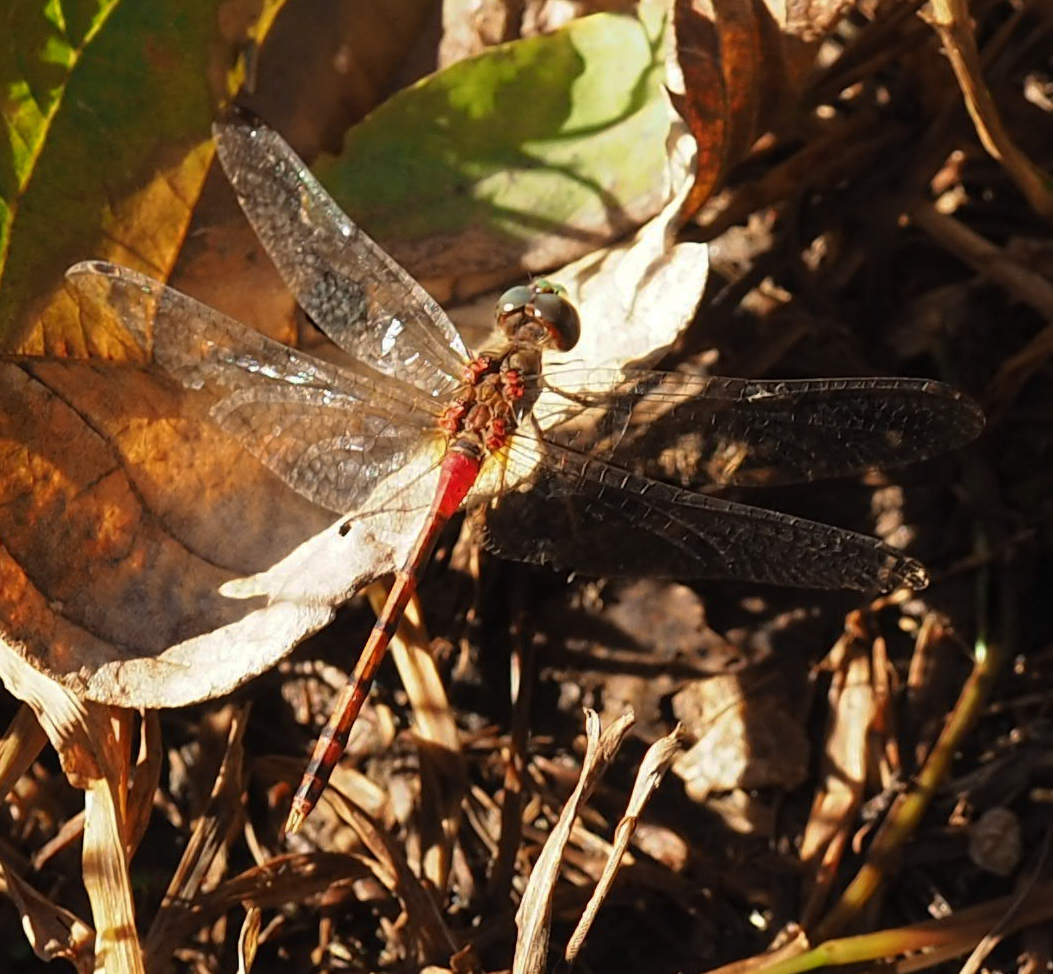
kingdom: Animalia
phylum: Arthropoda
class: Insecta
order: Odonata
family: Libellulidae
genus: Sympetrum
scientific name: Sympetrum ambiguum
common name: Blue-faced meadowhawk
